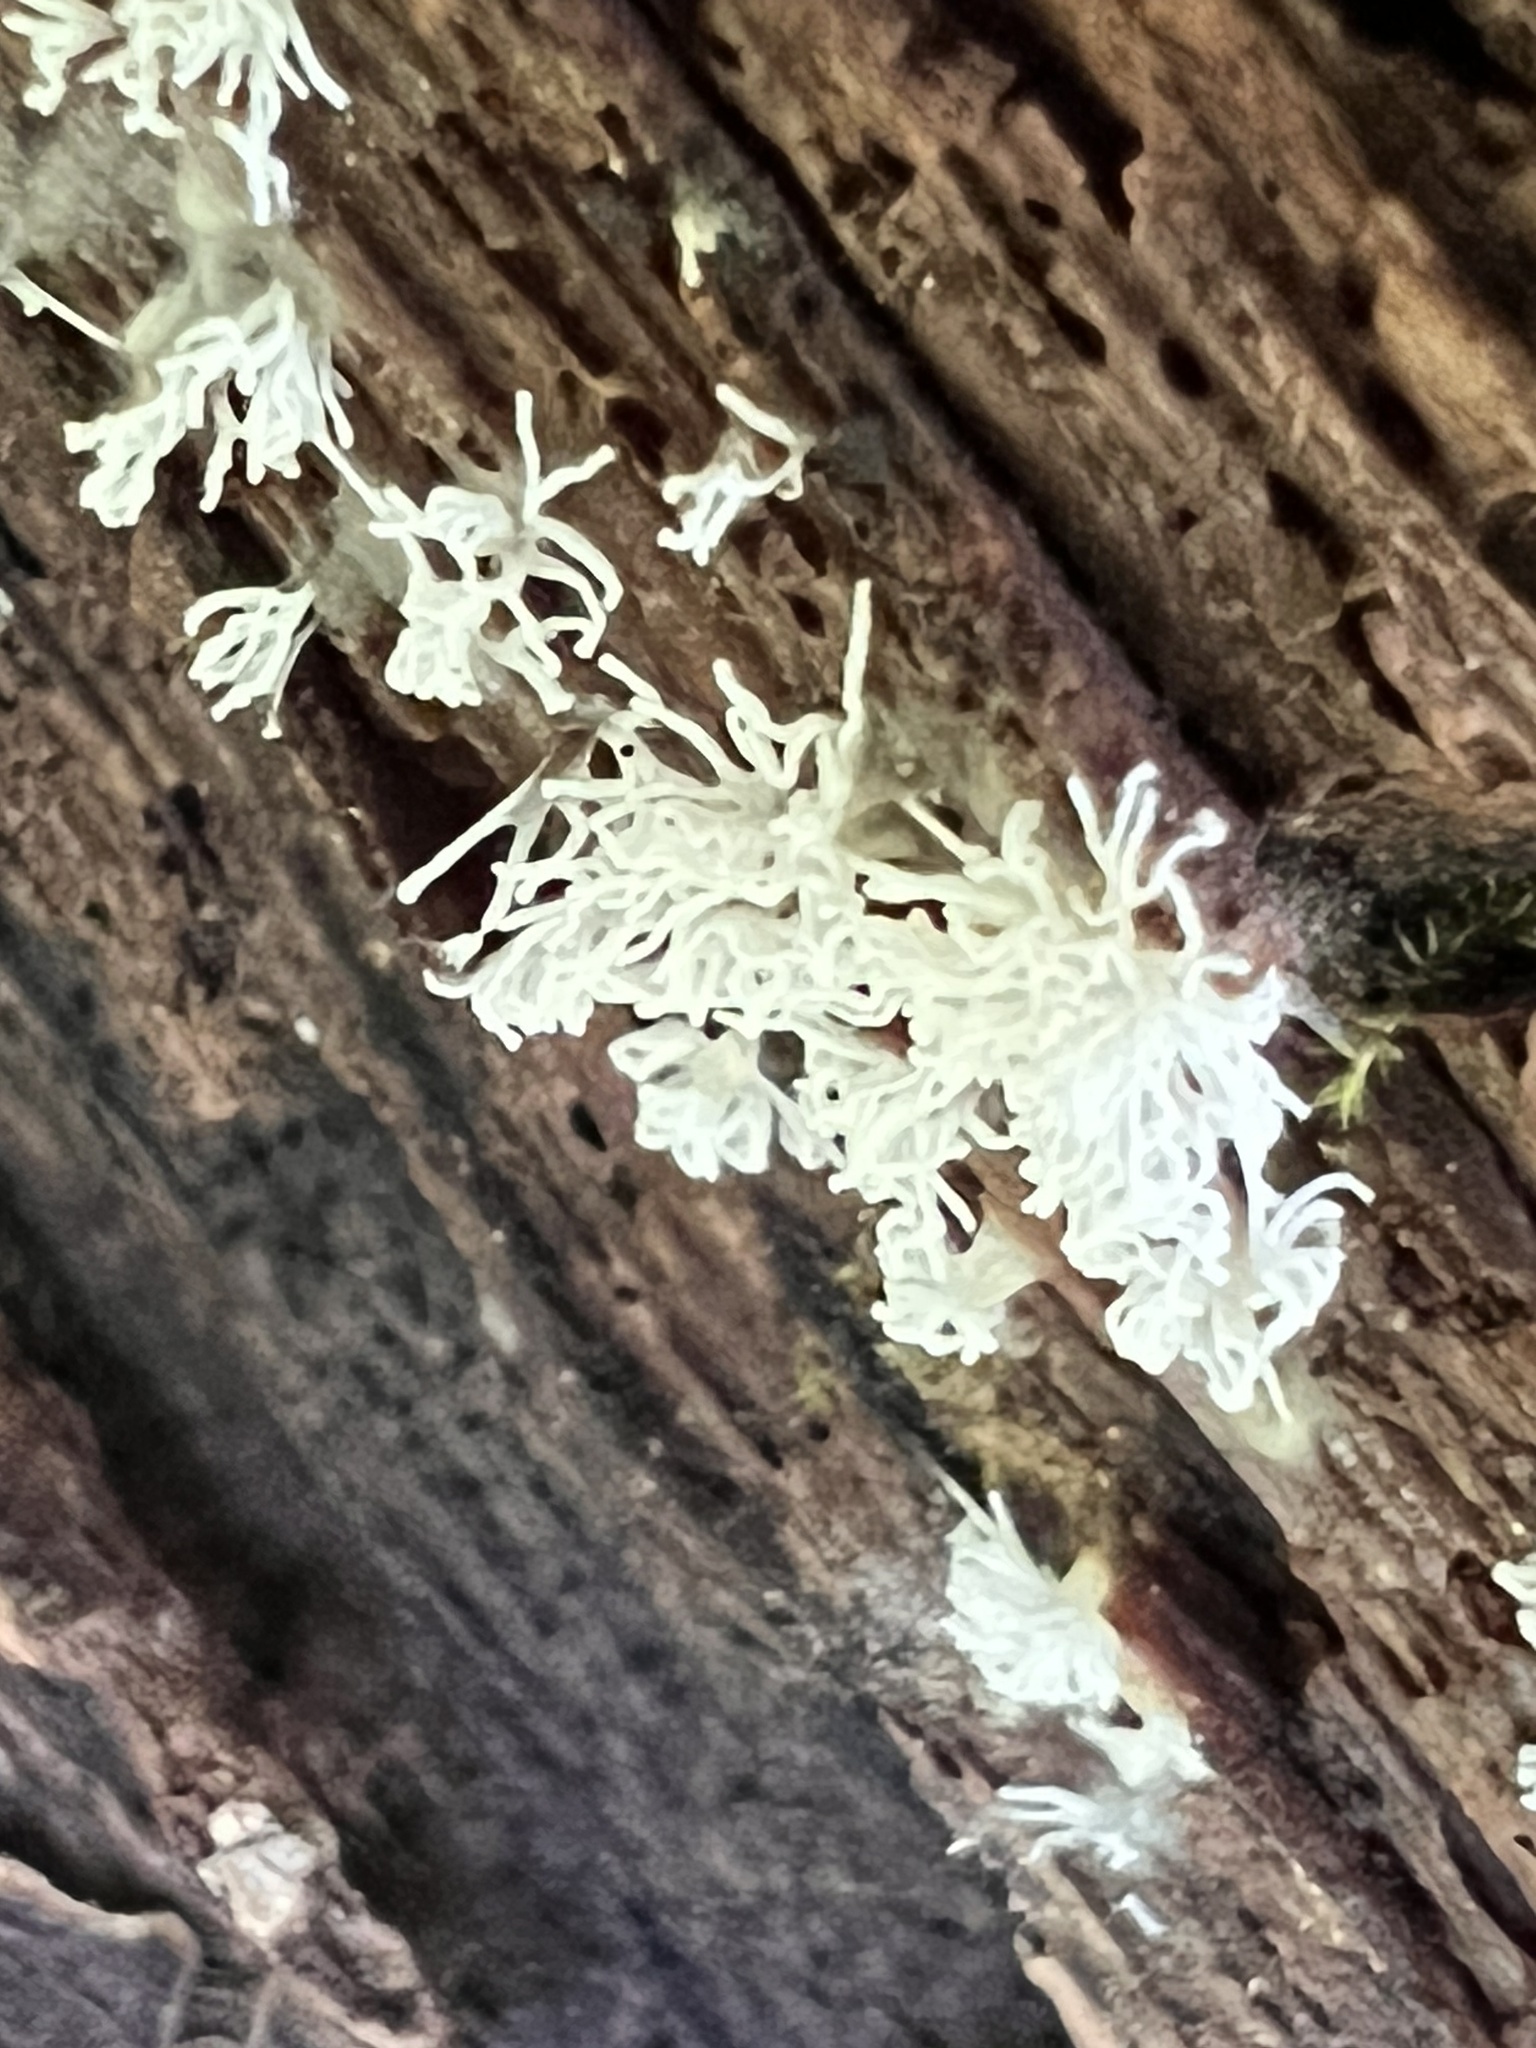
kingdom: Protozoa
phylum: Mycetozoa
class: Protosteliomycetes
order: Ceratiomyxales
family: Ceratiomyxaceae
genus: Ceratiomyxa
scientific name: Ceratiomyxa fruticulosa
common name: Honeycomb coral slime mold
